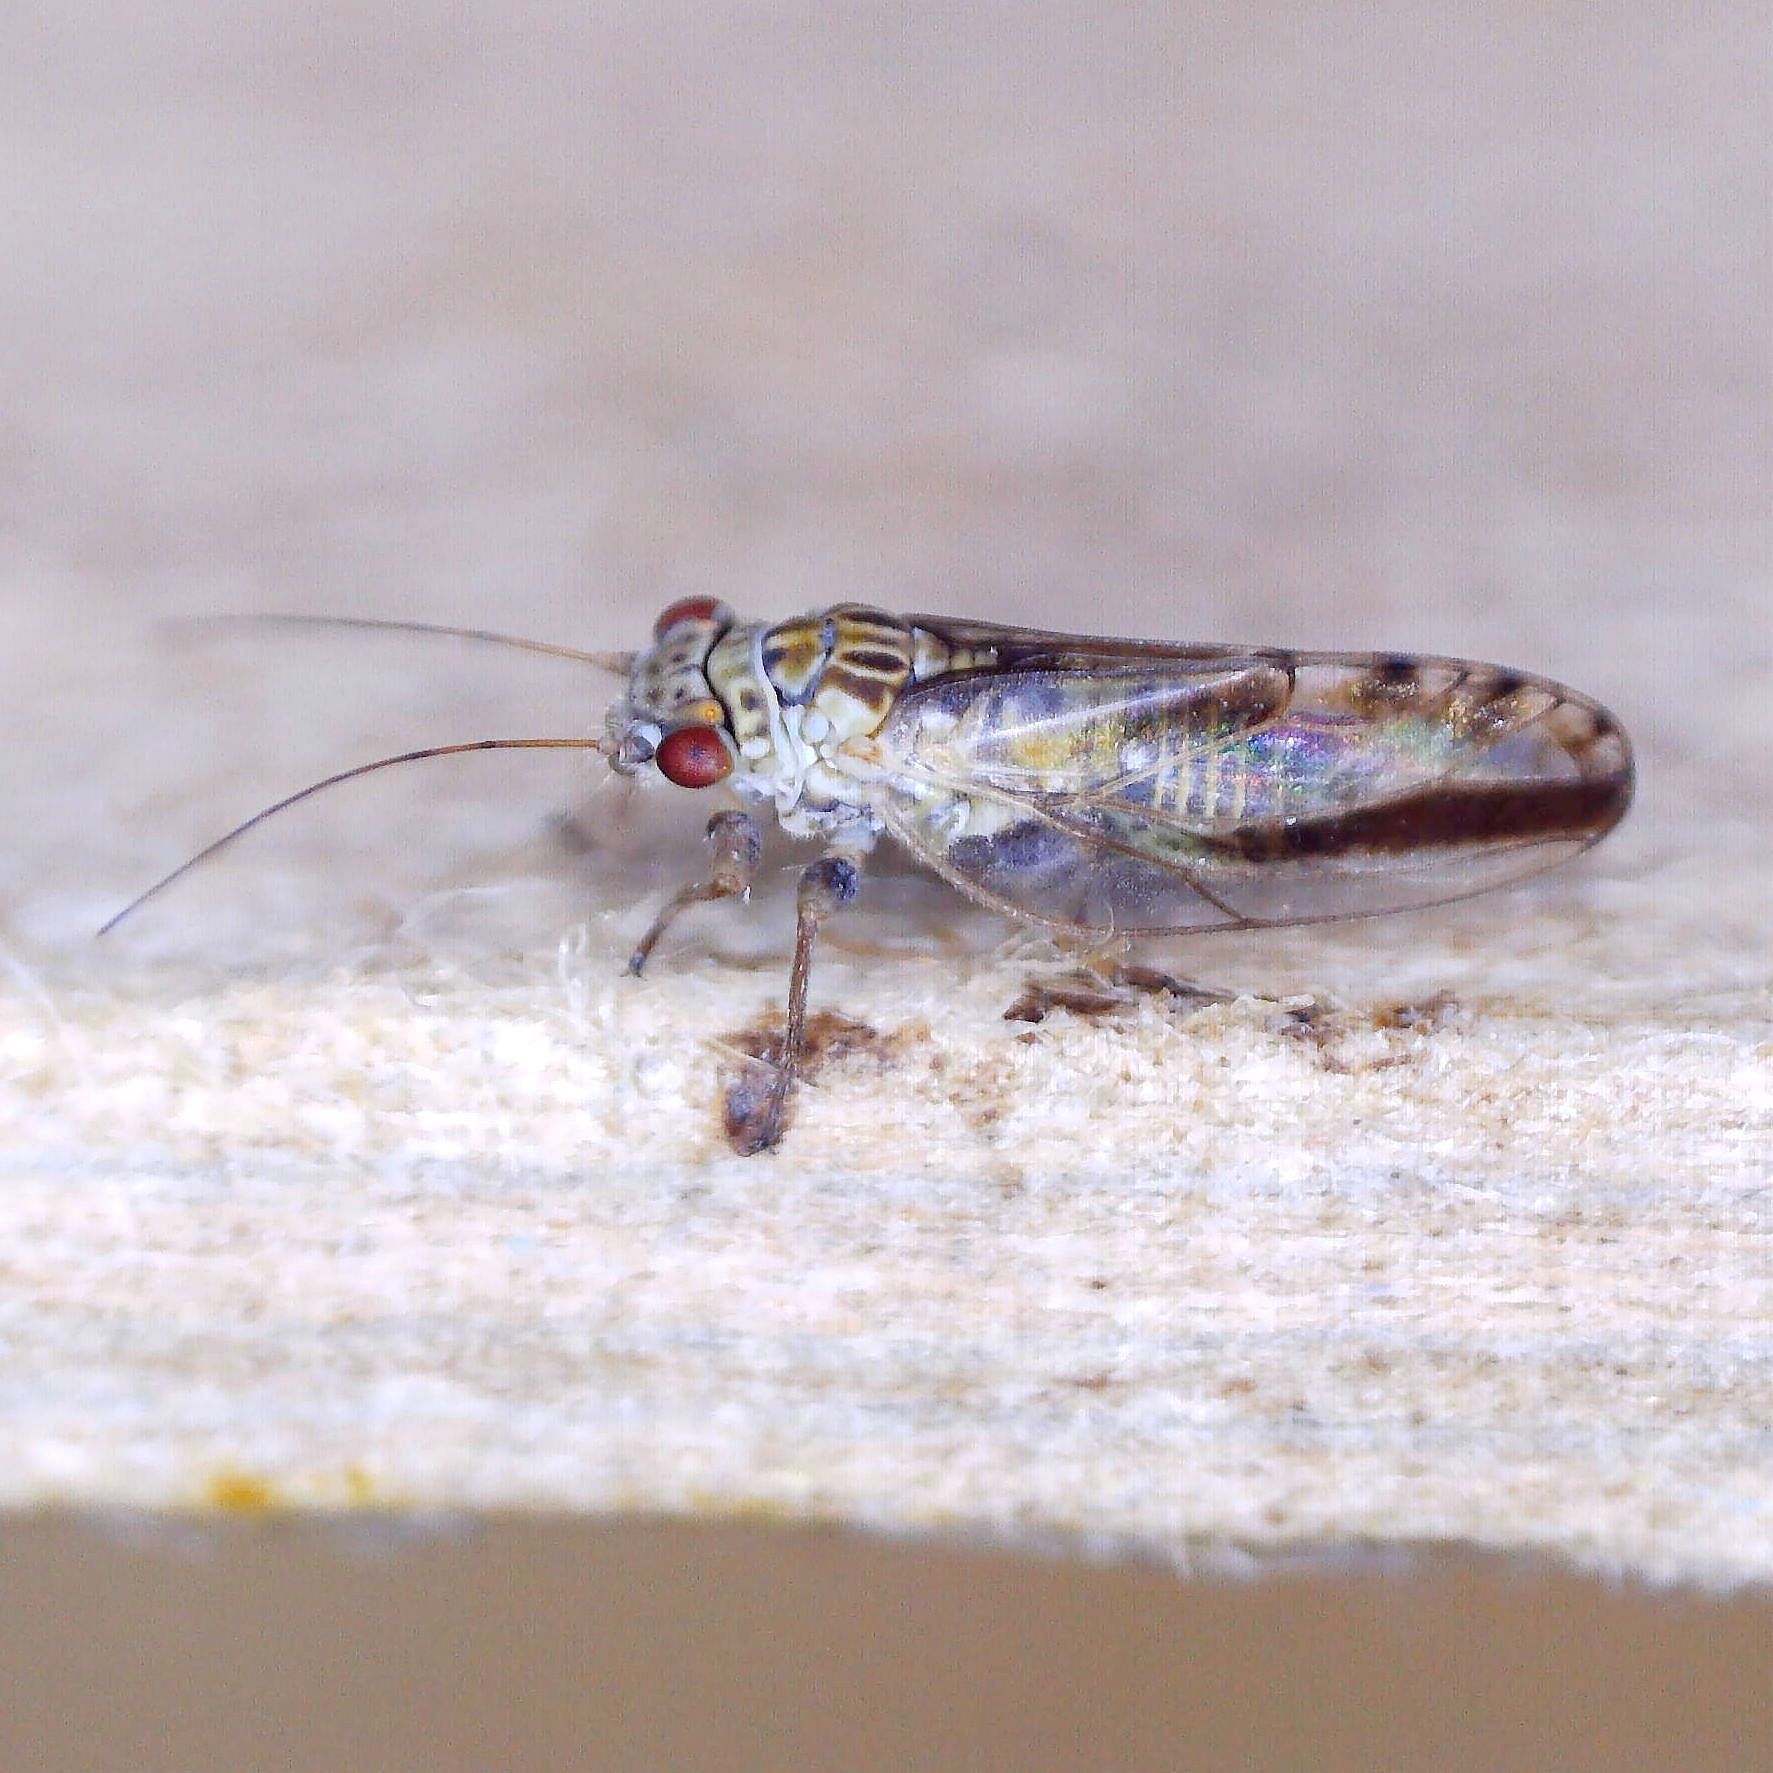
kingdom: Animalia
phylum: Arthropoda
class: Insecta
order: Hemiptera
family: Psyllidae
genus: Arytaina
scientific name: Arytaina genistae
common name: Psyllid
